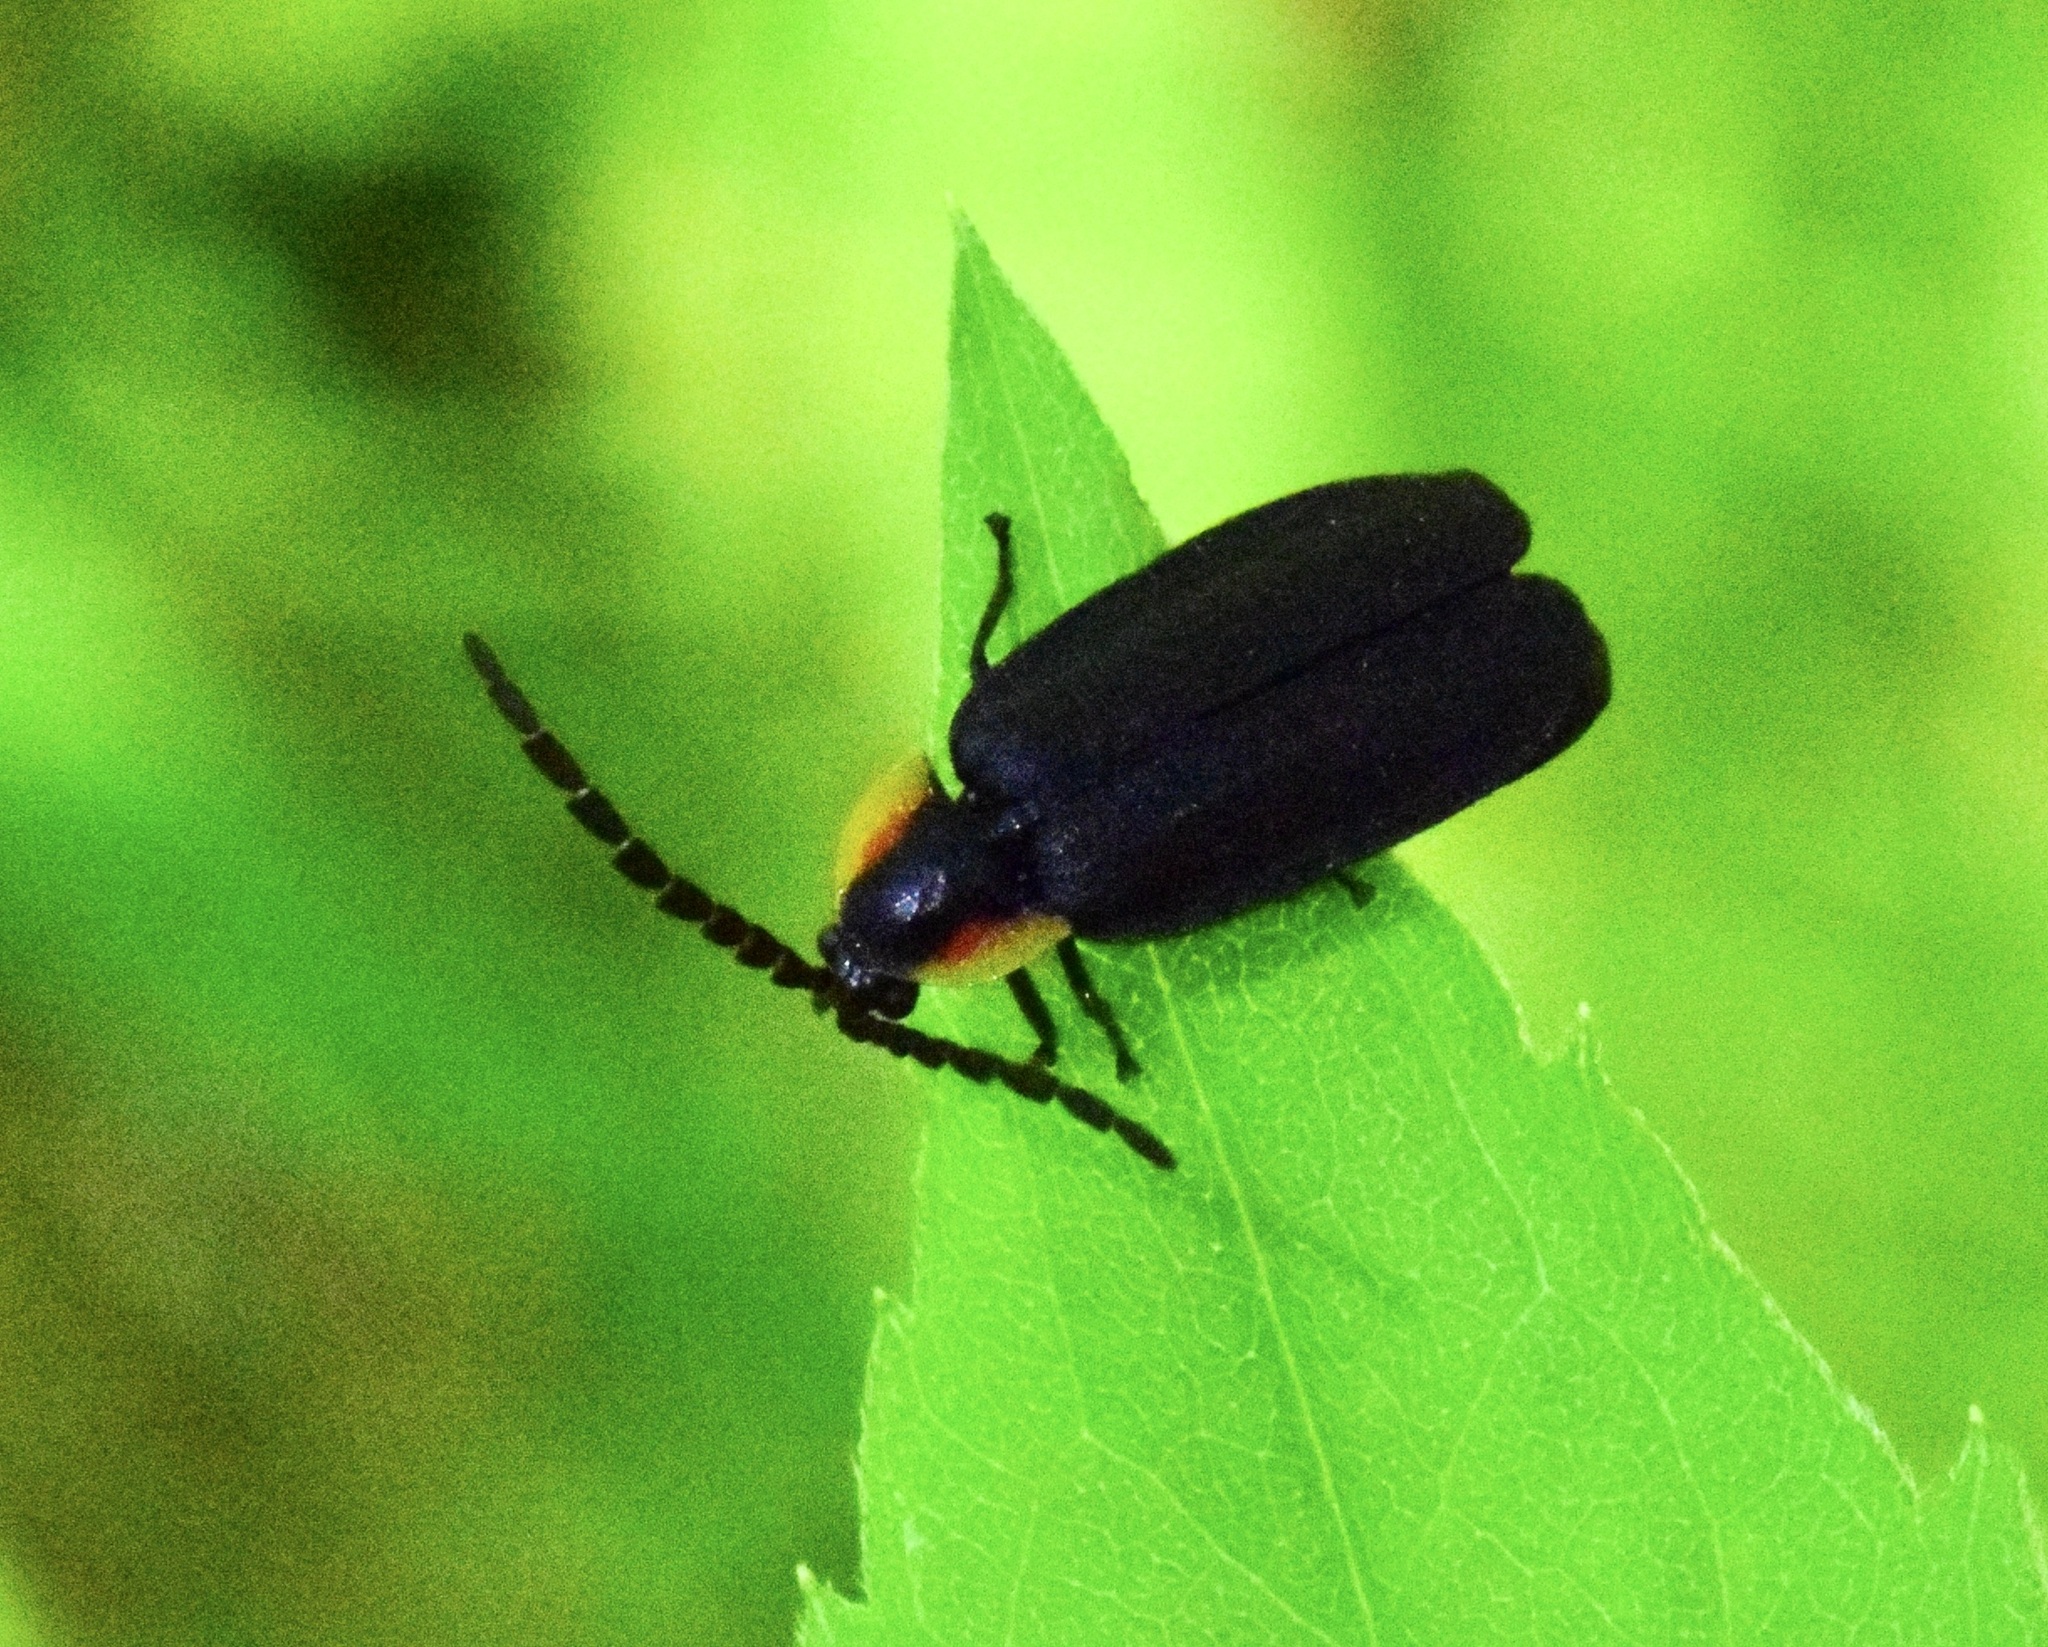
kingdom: Animalia
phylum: Arthropoda
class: Insecta
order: Coleoptera
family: Lampyridae
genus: Lucidota
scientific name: Lucidota atra
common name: Black firefly
